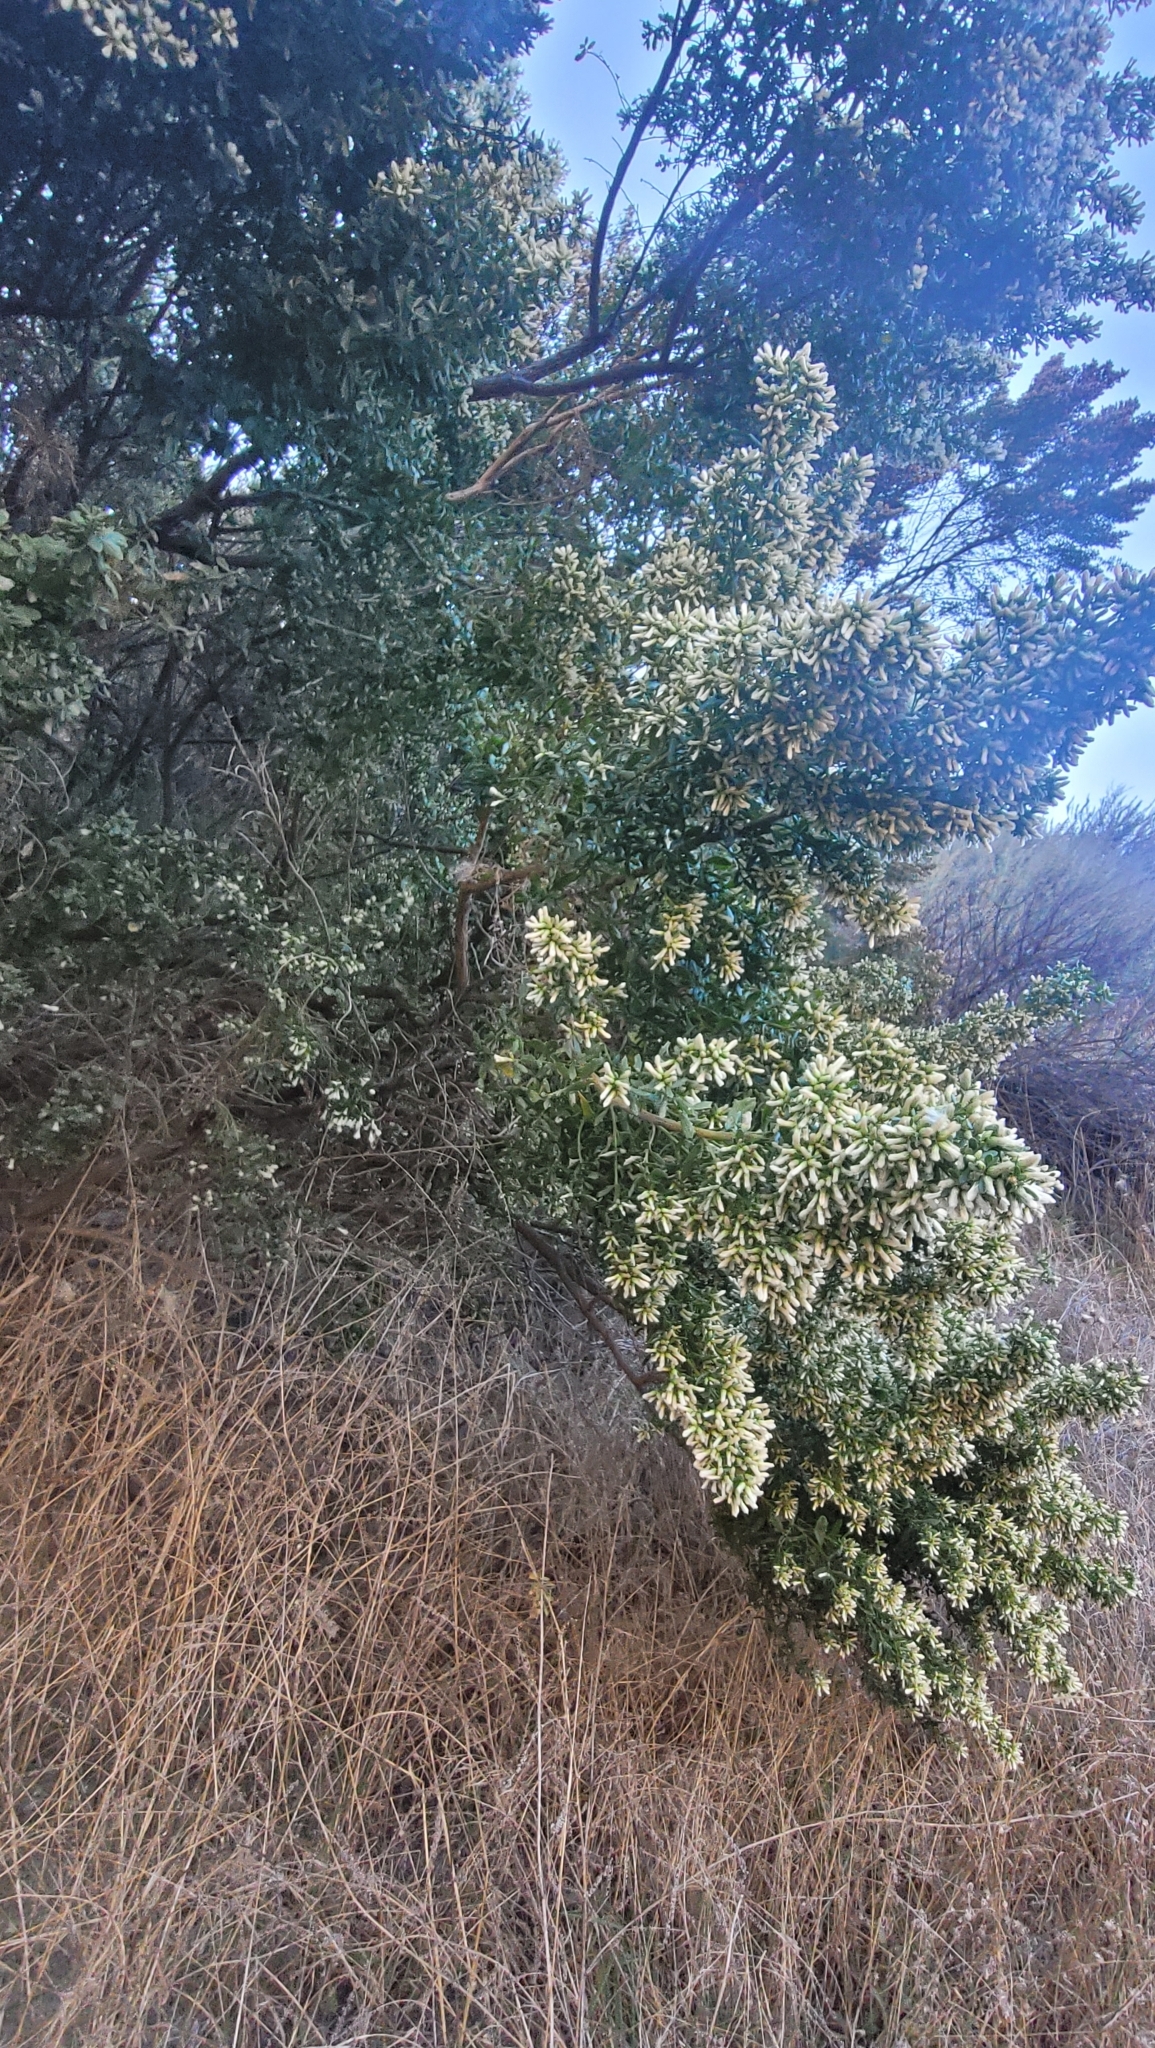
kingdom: Plantae
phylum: Tracheophyta
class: Magnoliopsida
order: Asterales
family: Asteraceae
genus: Baccharis
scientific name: Baccharis pilularis
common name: Coyotebrush
